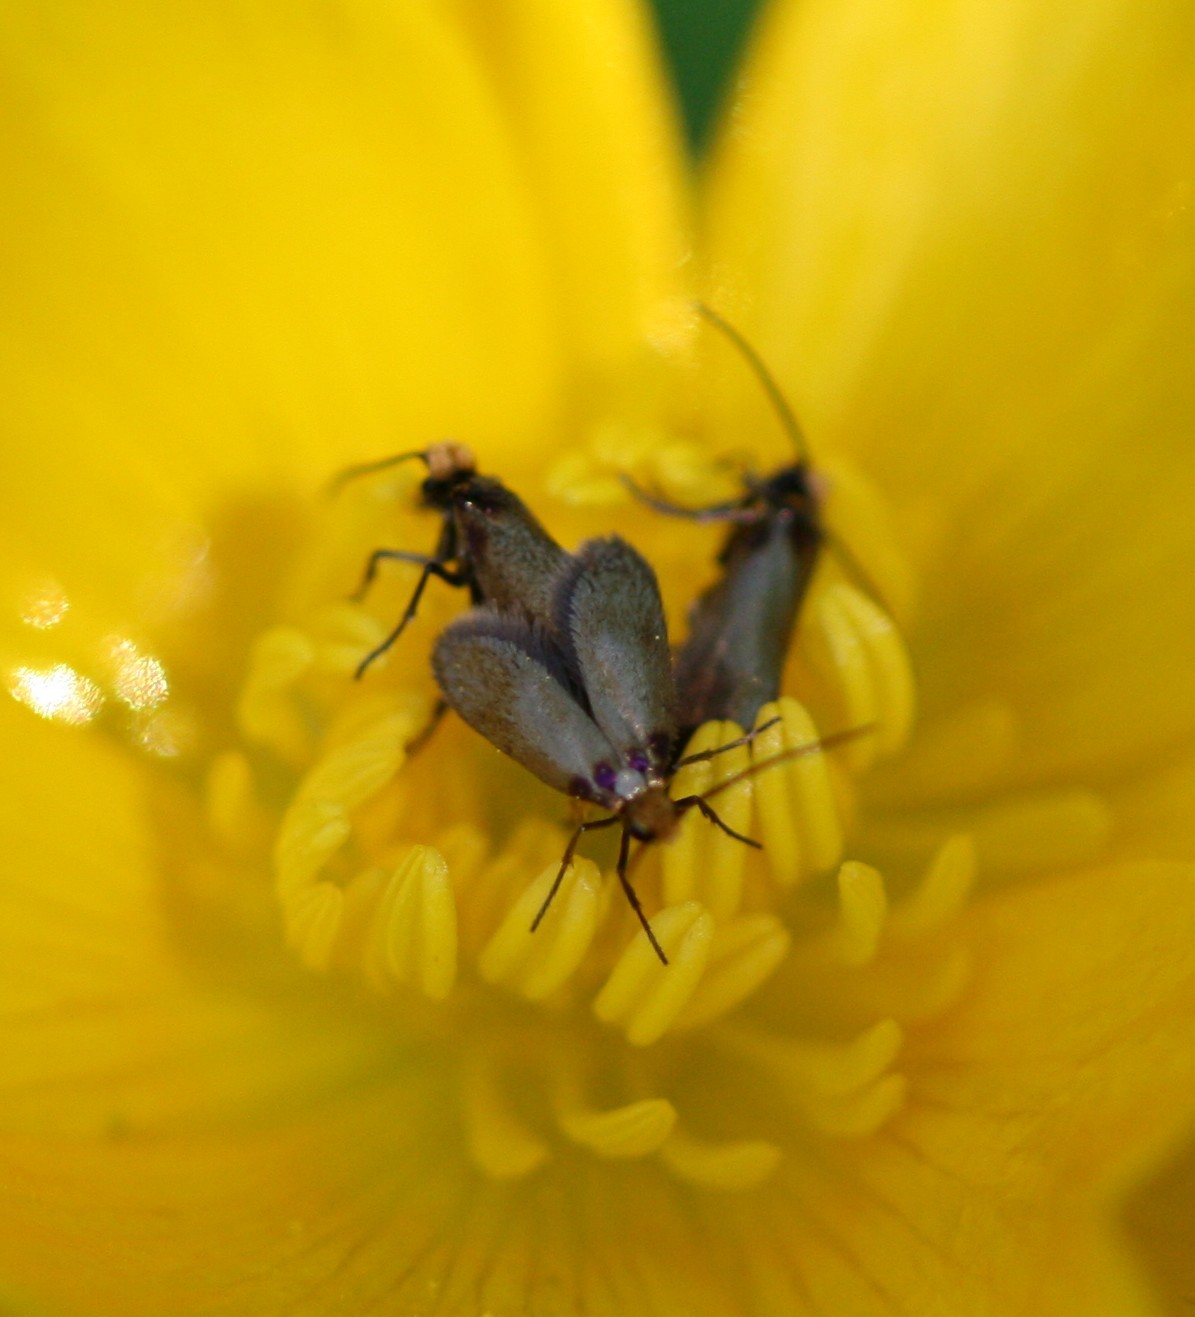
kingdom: Animalia
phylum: Arthropoda
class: Insecta
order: Lepidoptera
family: Micropterigidae
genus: Micropterix
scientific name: Micropterix calthella
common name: Plain gold
